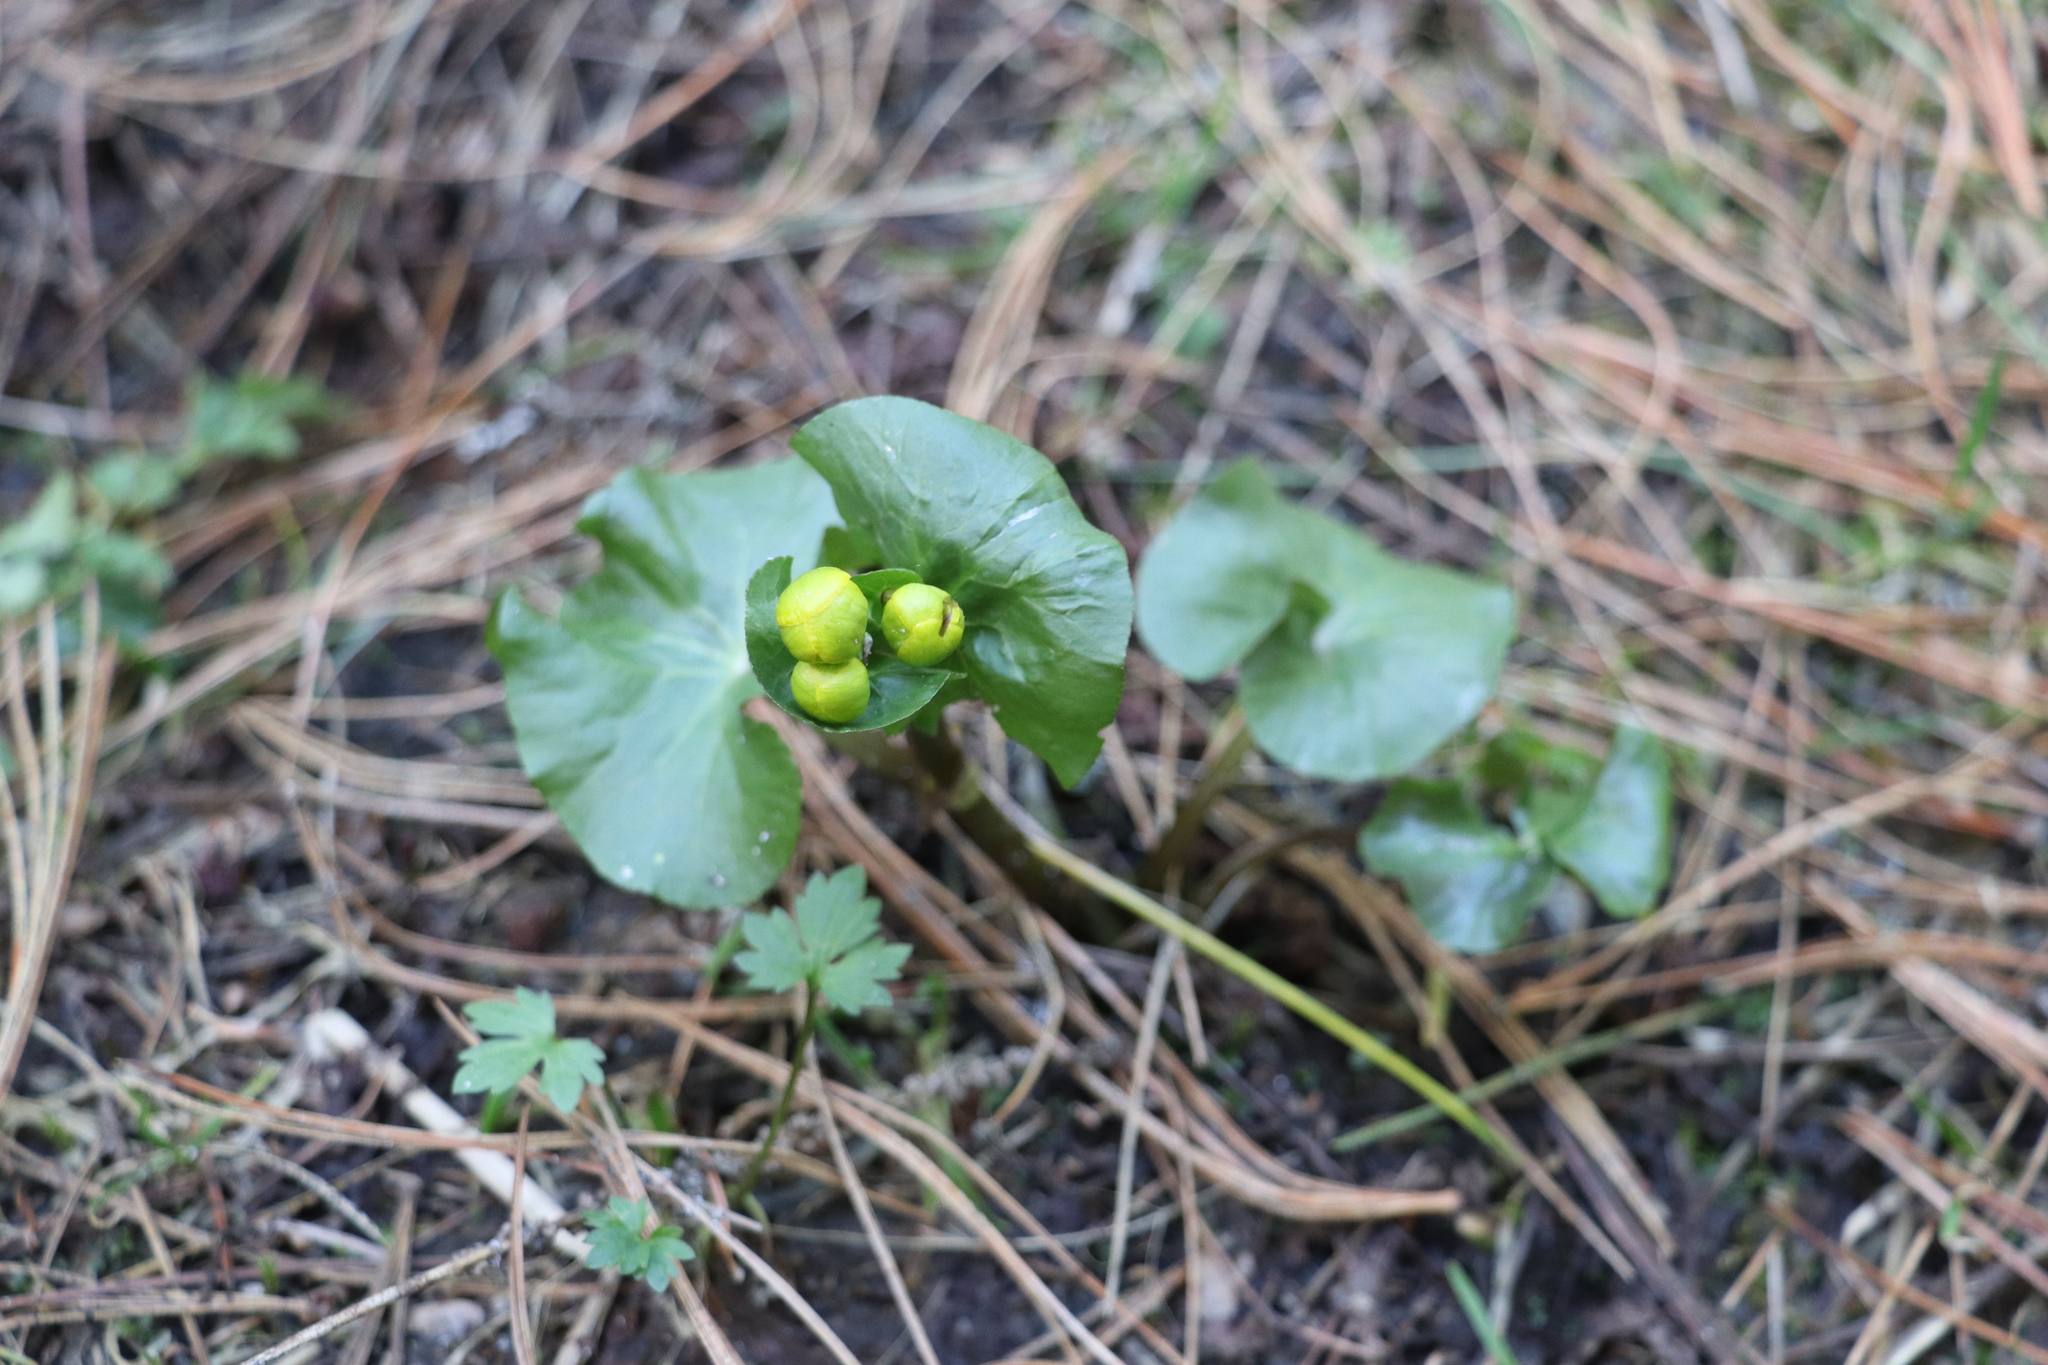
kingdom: Plantae
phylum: Tracheophyta
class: Magnoliopsida
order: Ranunculales
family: Ranunculaceae
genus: Caltha
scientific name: Caltha palustris
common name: Marsh marigold
